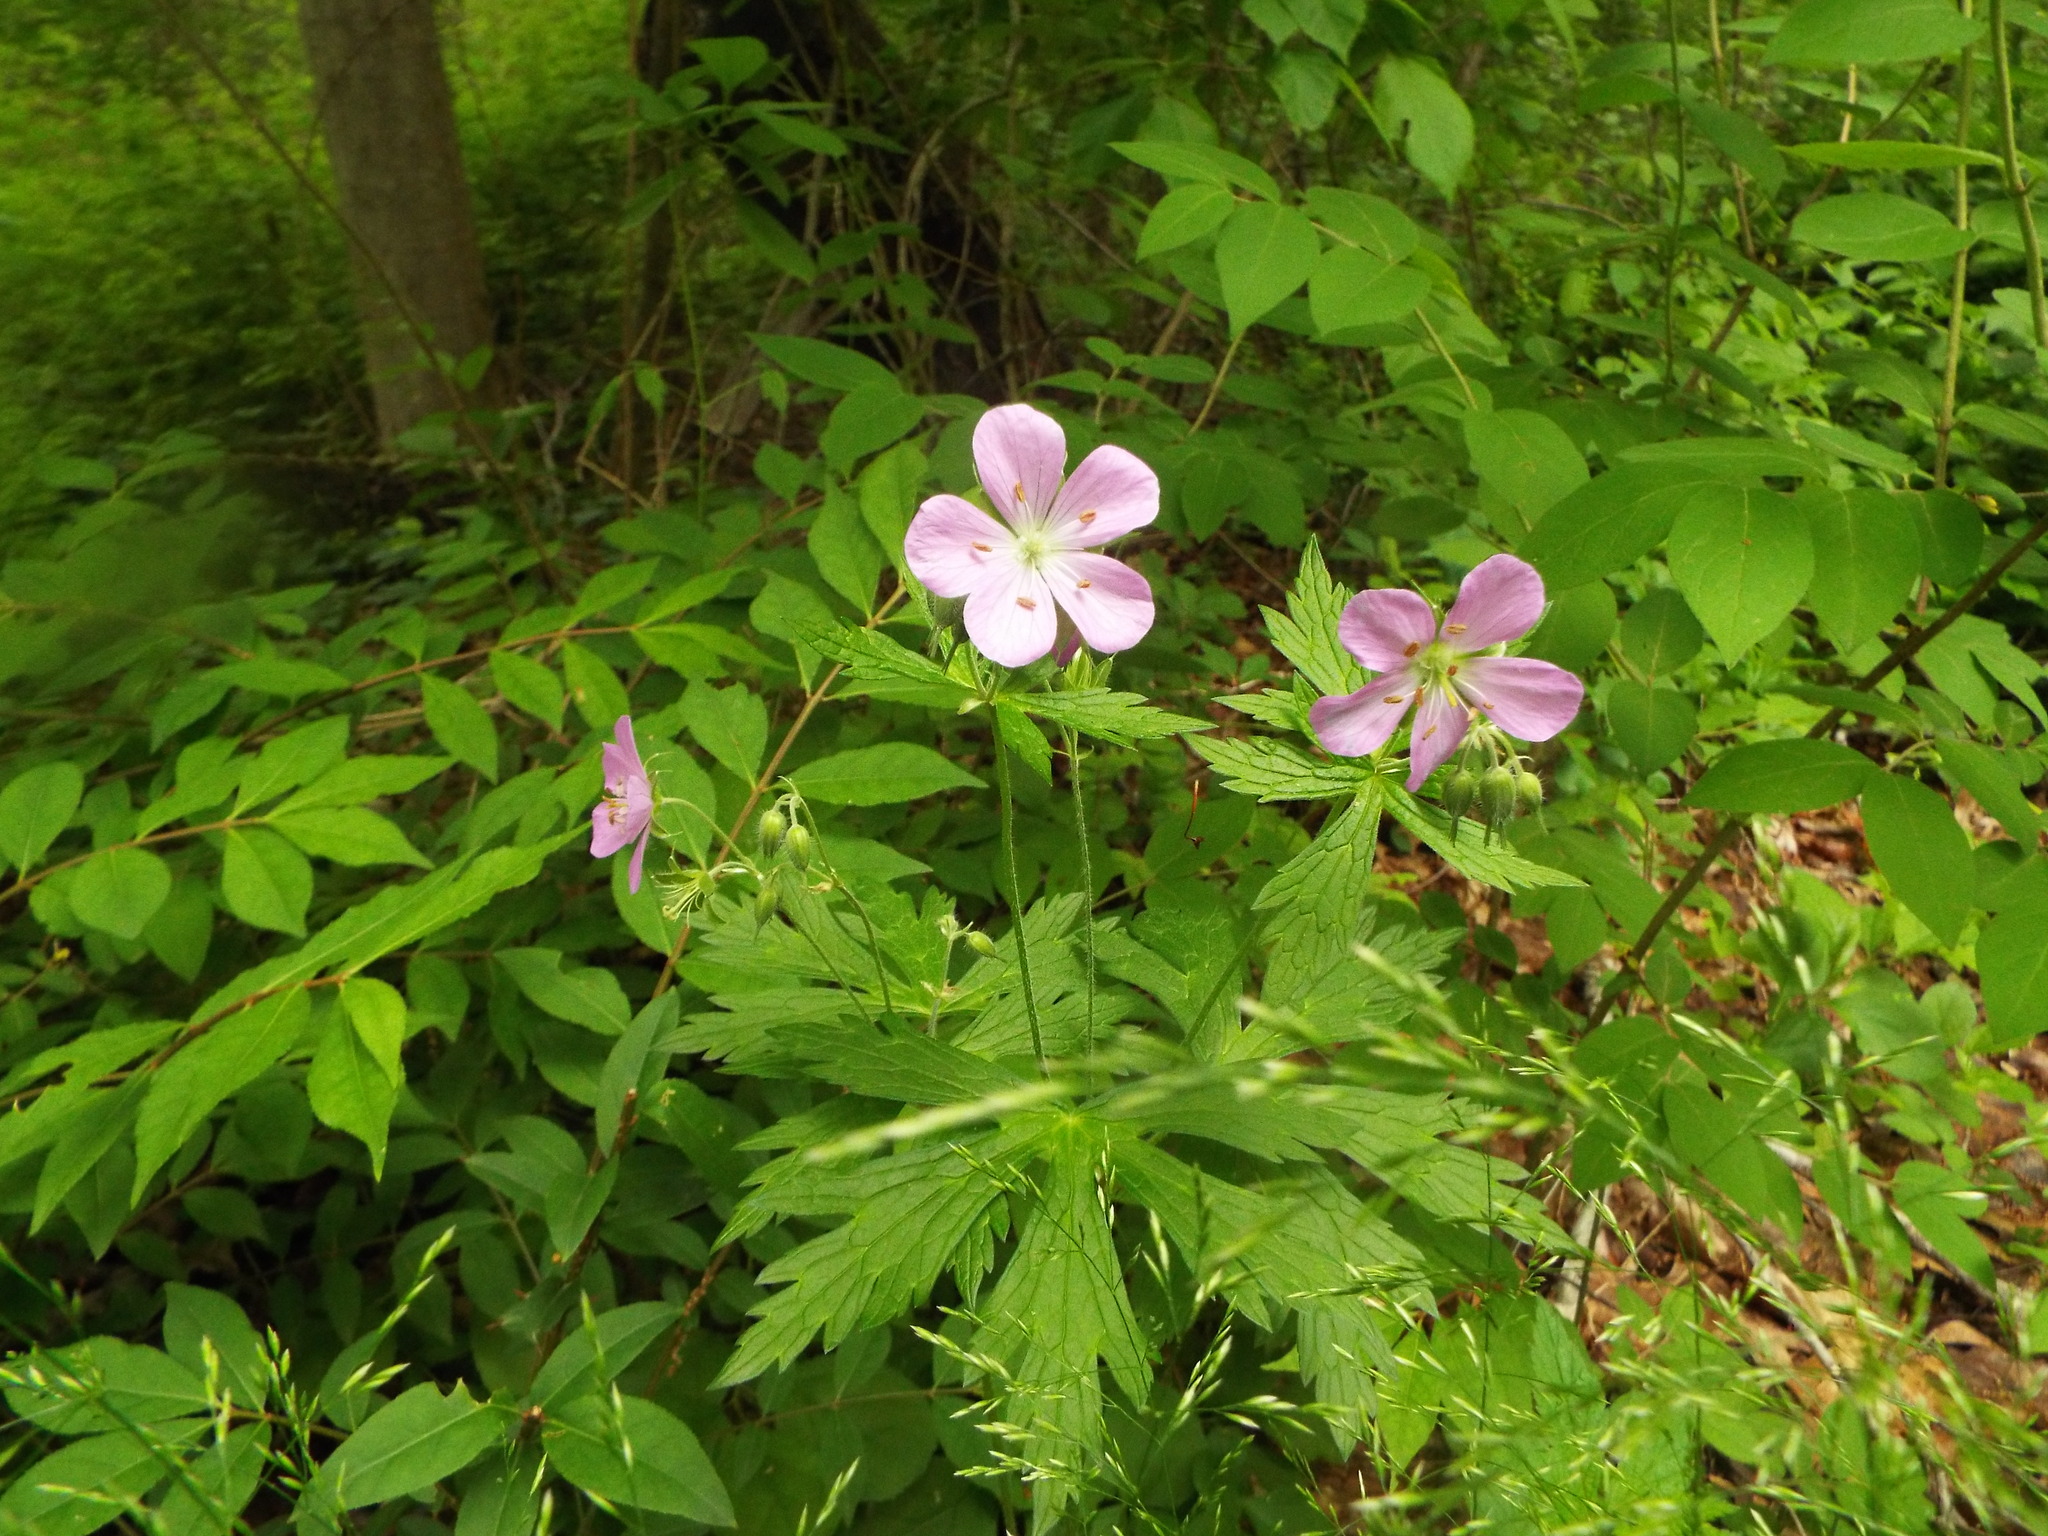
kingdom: Plantae
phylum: Tracheophyta
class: Magnoliopsida
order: Geraniales
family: Geraniaceae
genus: Geranium
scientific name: Geranium maculatum
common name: Spotted geranium
